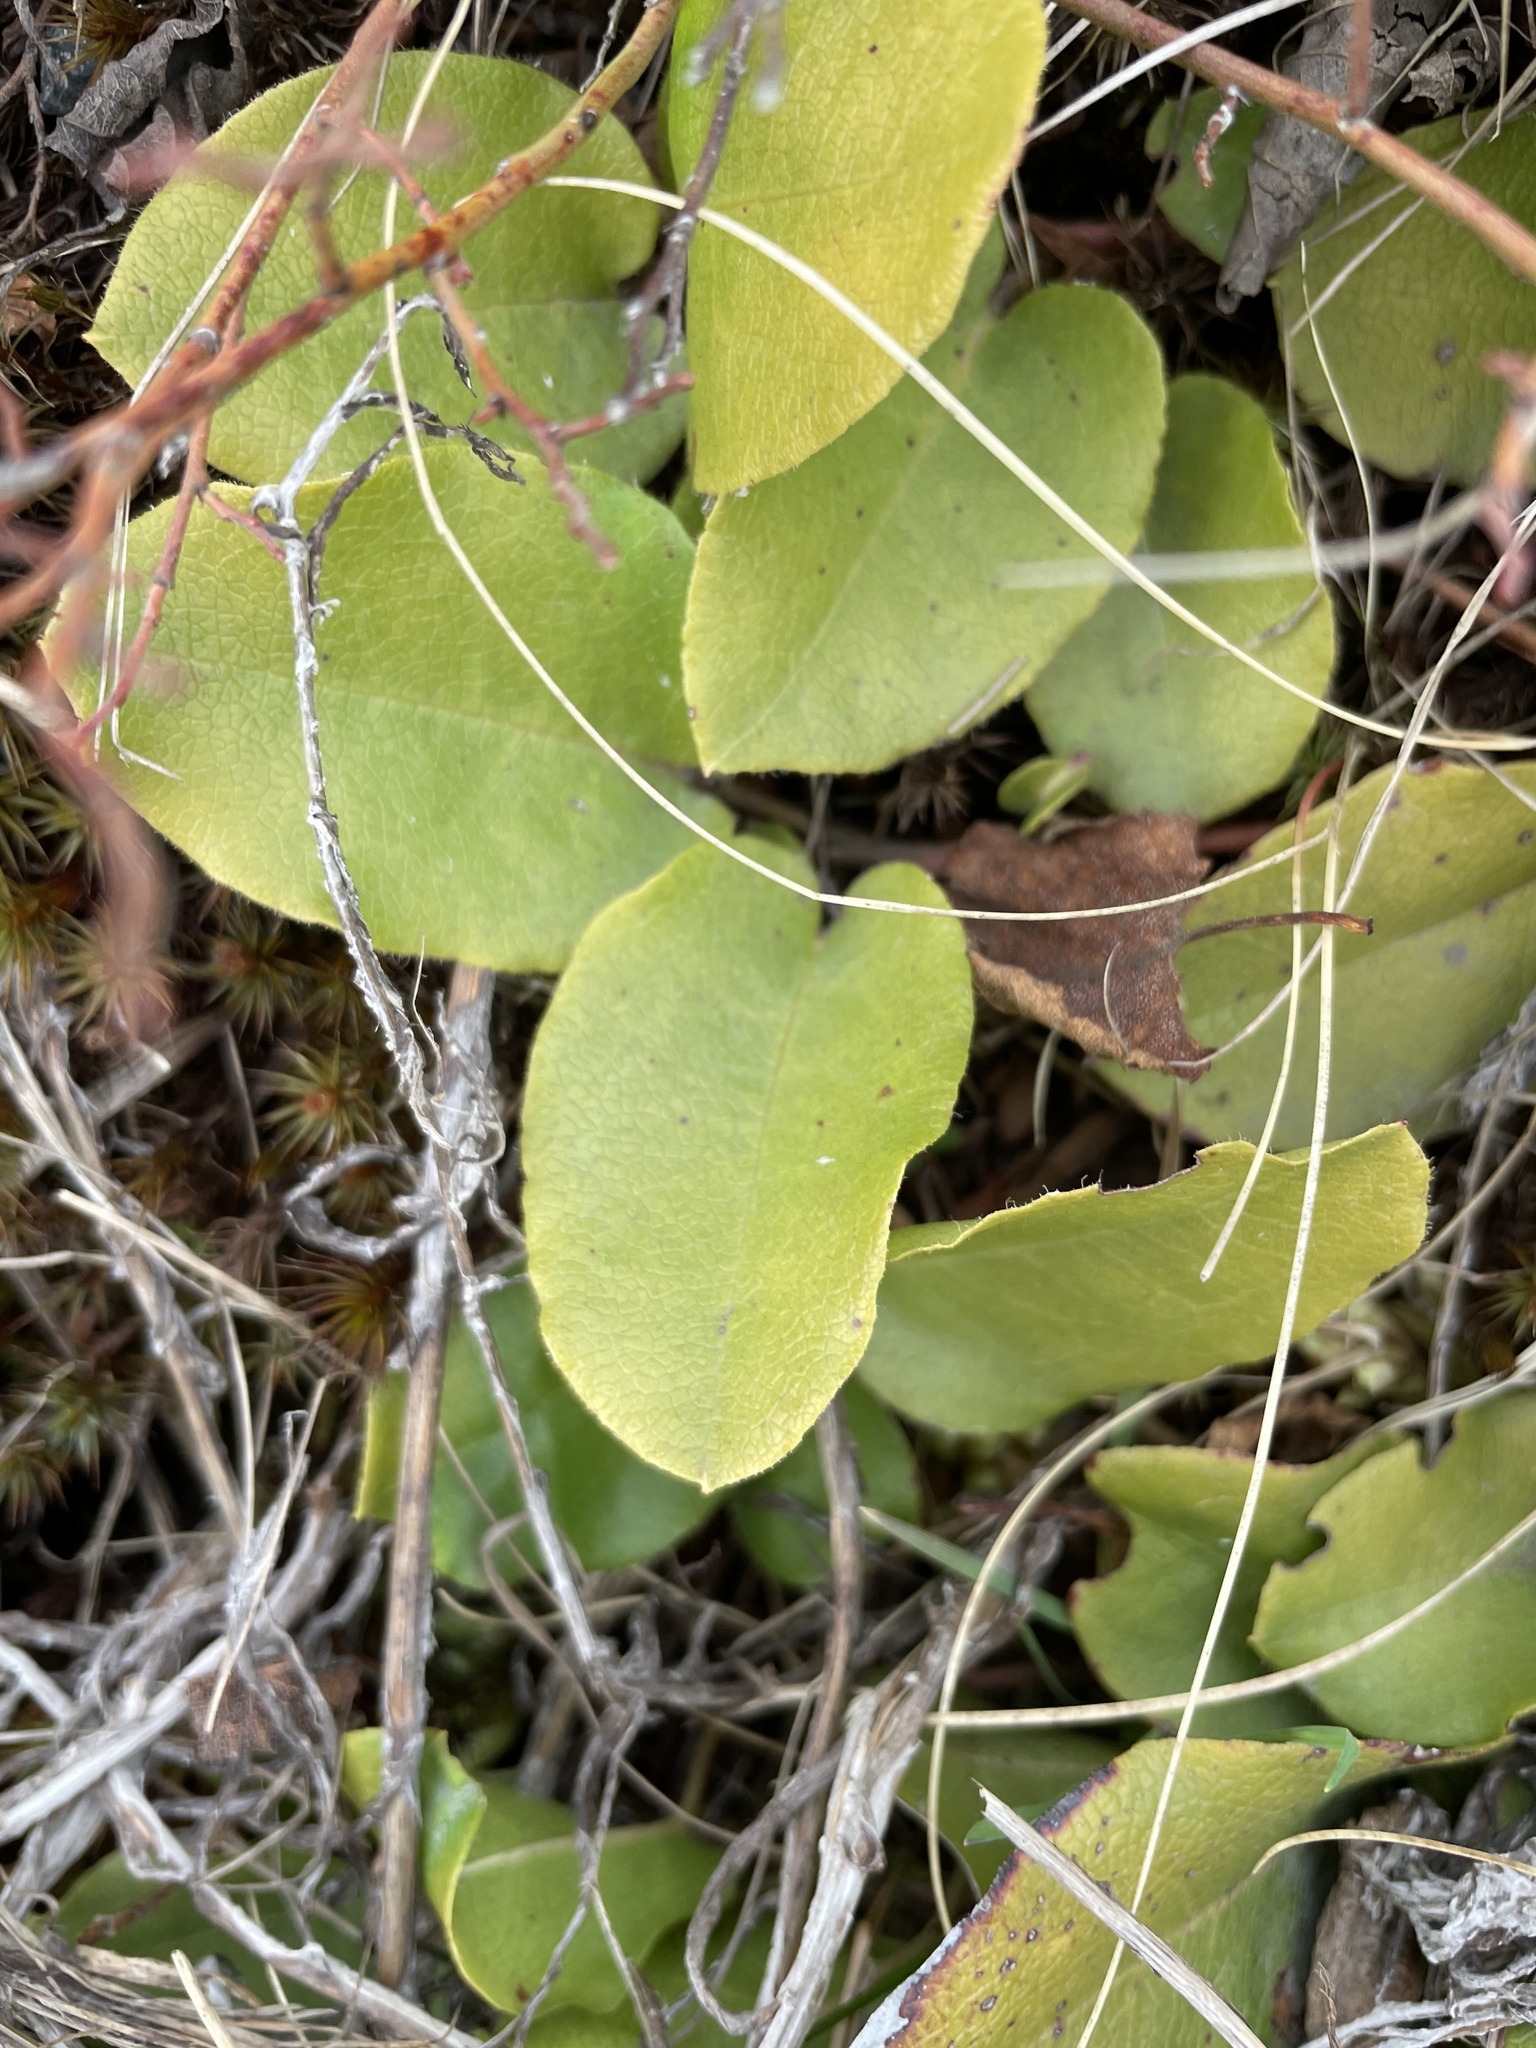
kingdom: Plantae
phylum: Tracheophyta
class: Magnoliopsida
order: Ericales
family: Ericaceae
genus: Epigaea
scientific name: Epigaea repens
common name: Gravelroot
